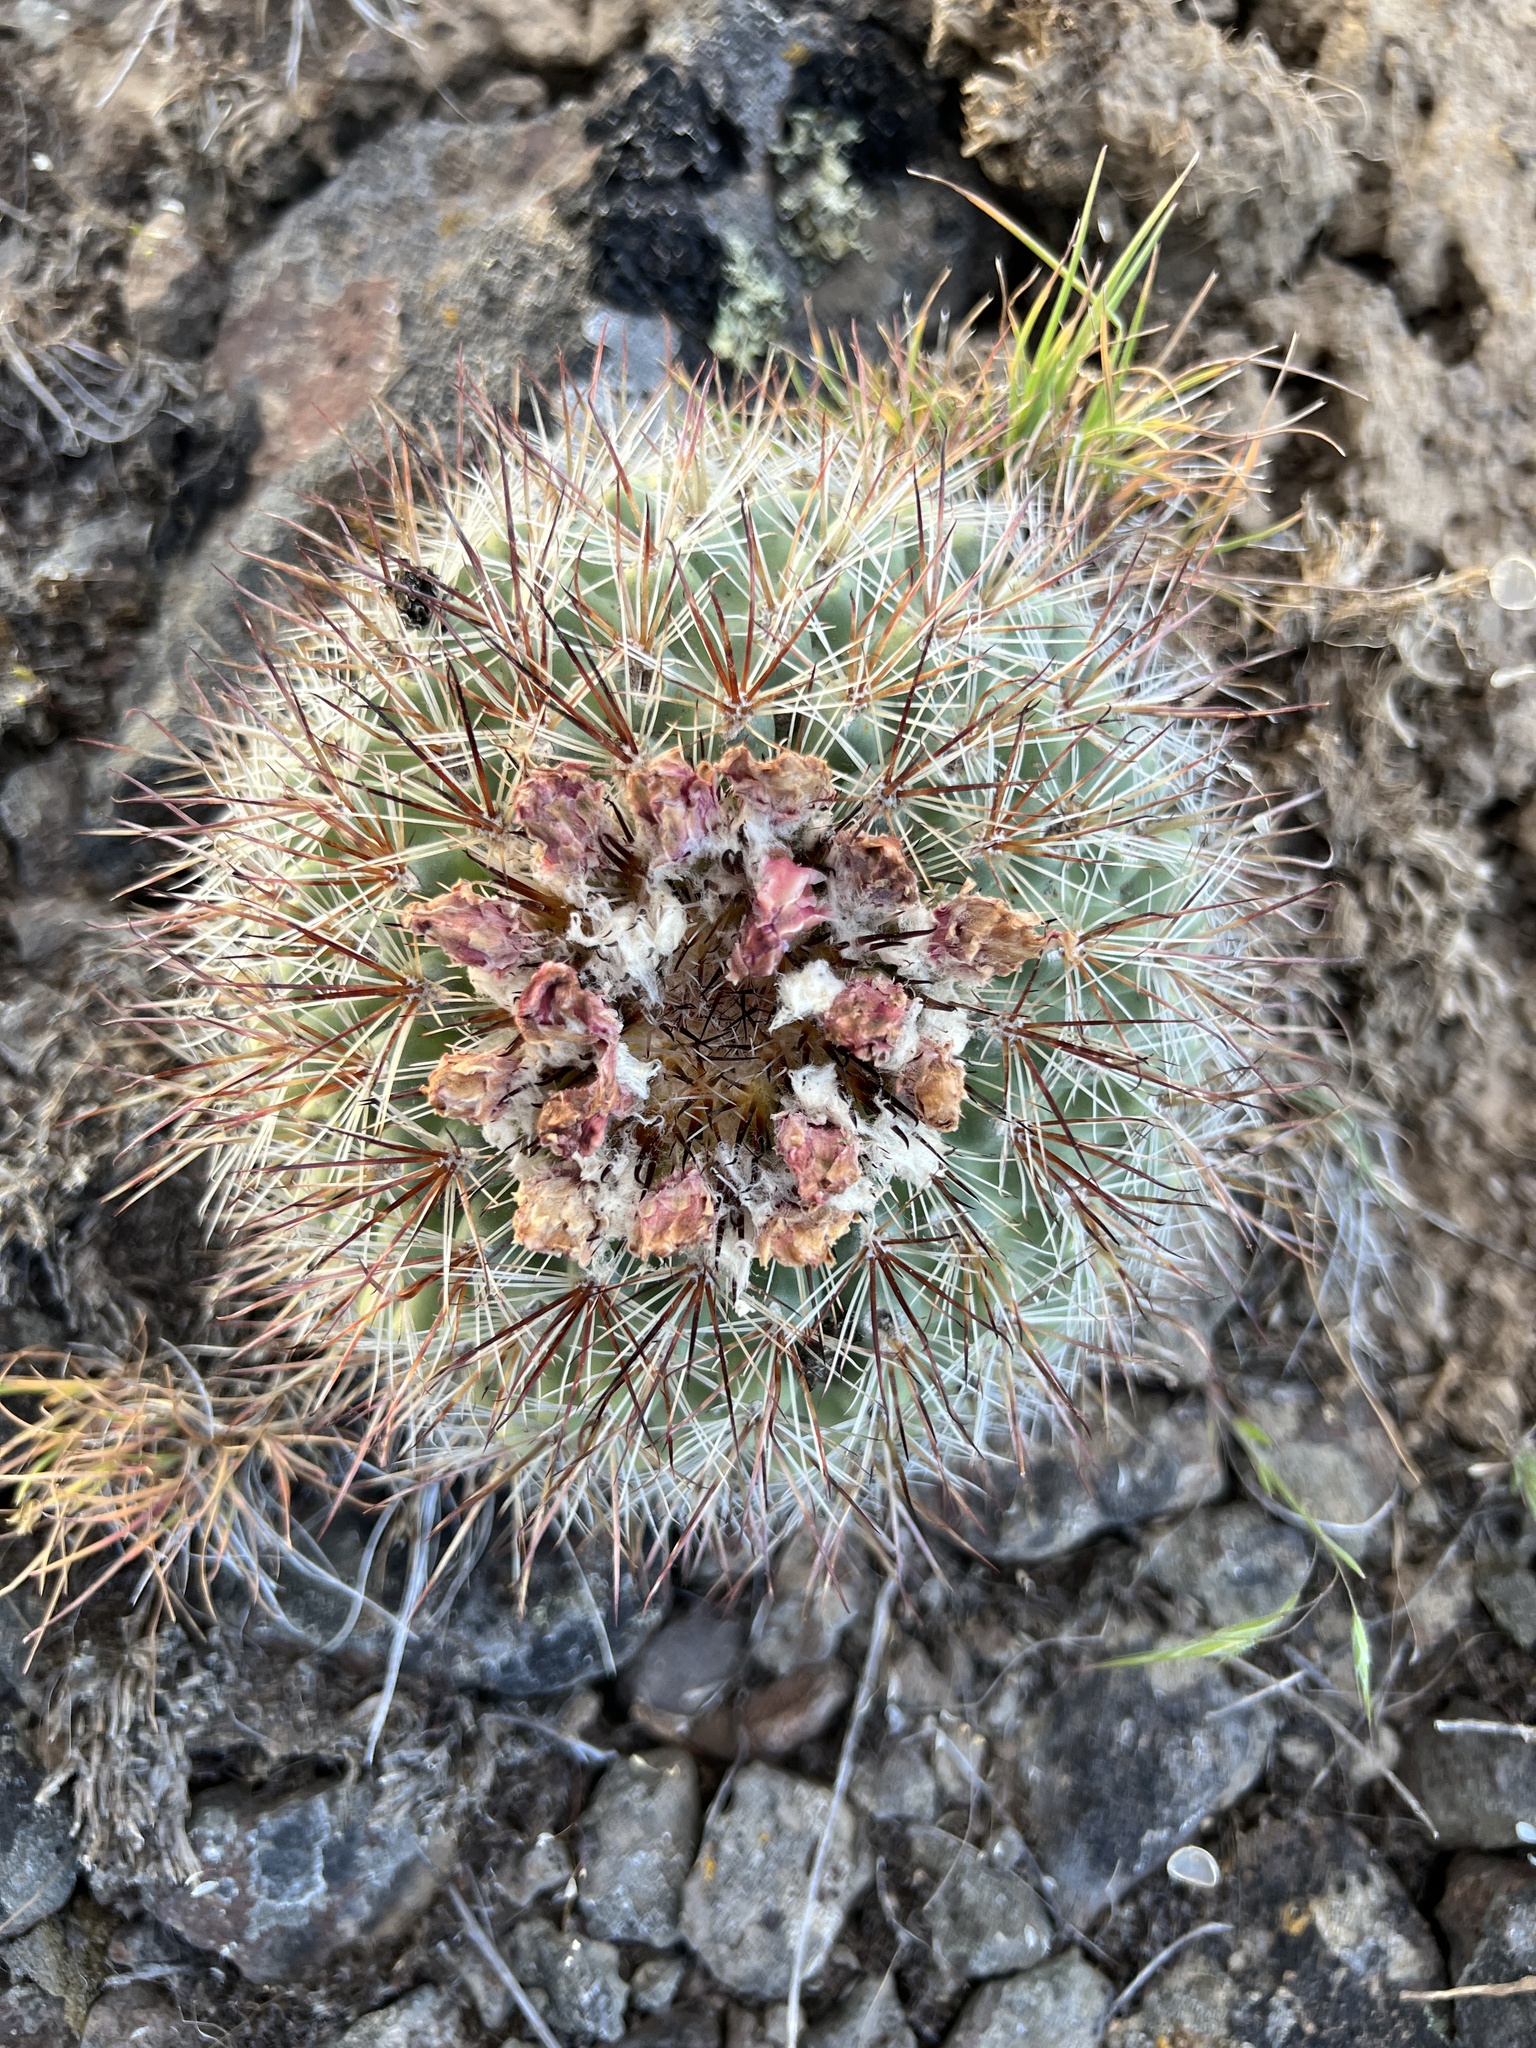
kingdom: Plantae
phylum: Tracheophyta
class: Magnoliopsida
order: Caryophyllales
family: Cactaceae
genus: Pediocactus
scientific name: Pediocactus nigrispinus
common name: Simpson's hedgehog cactus
